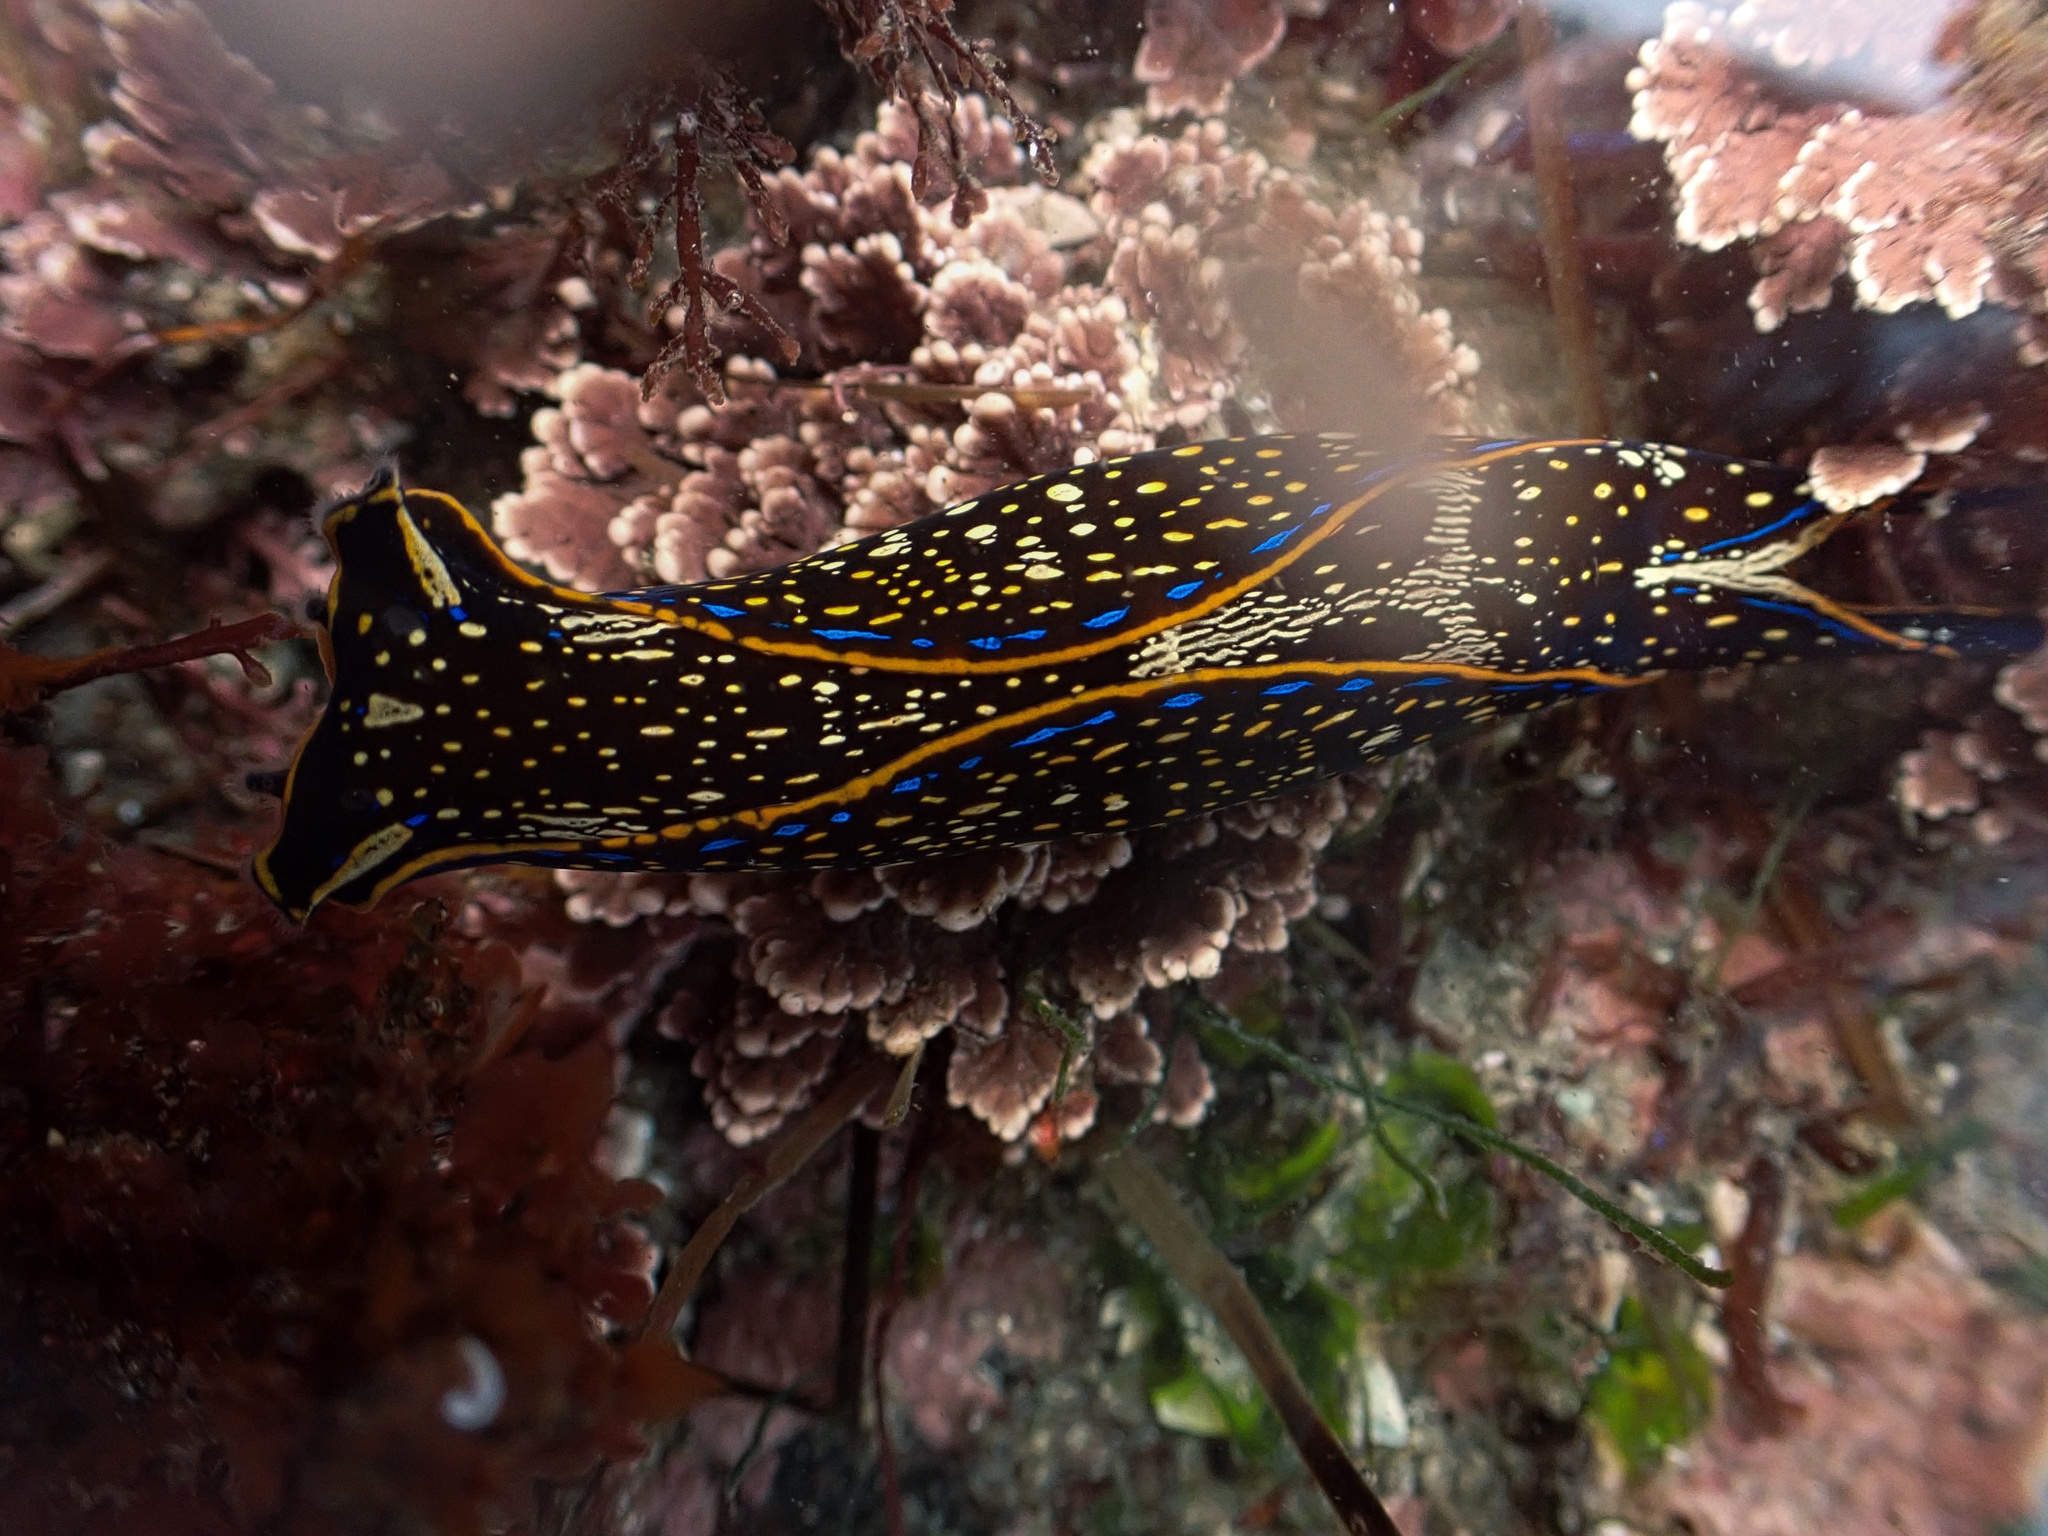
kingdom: Animalia
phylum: Mollusca
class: Gastropoda
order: Cephalaspidea
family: Aglajidae
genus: Navanax
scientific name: Navanax inermis
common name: California aglaja
